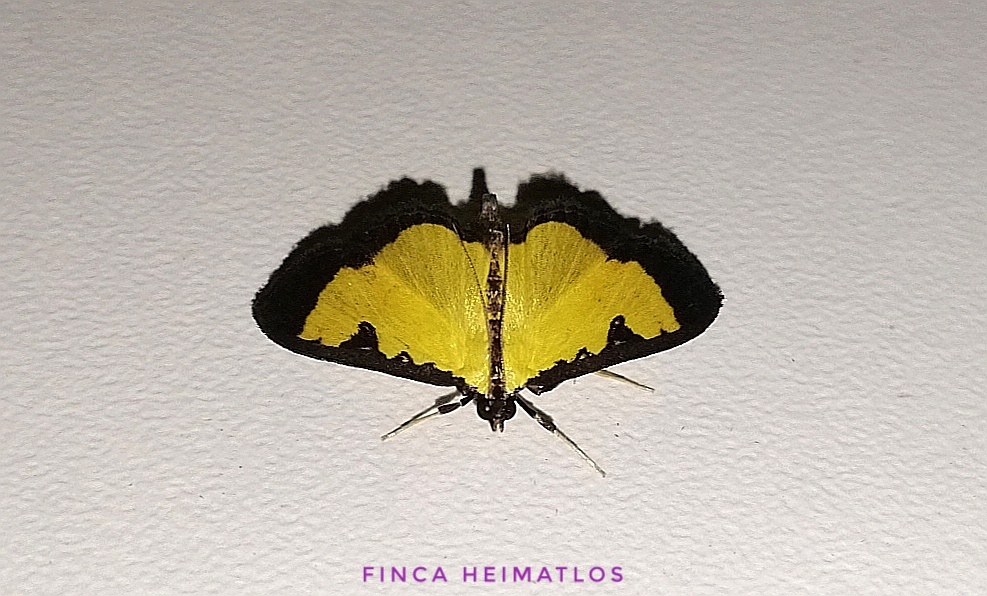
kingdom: Animalia
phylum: Arthropoda
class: Insecta
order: Lepidoptera
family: Crambidae
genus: Goniorhynchus
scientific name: Goniorhynchus
